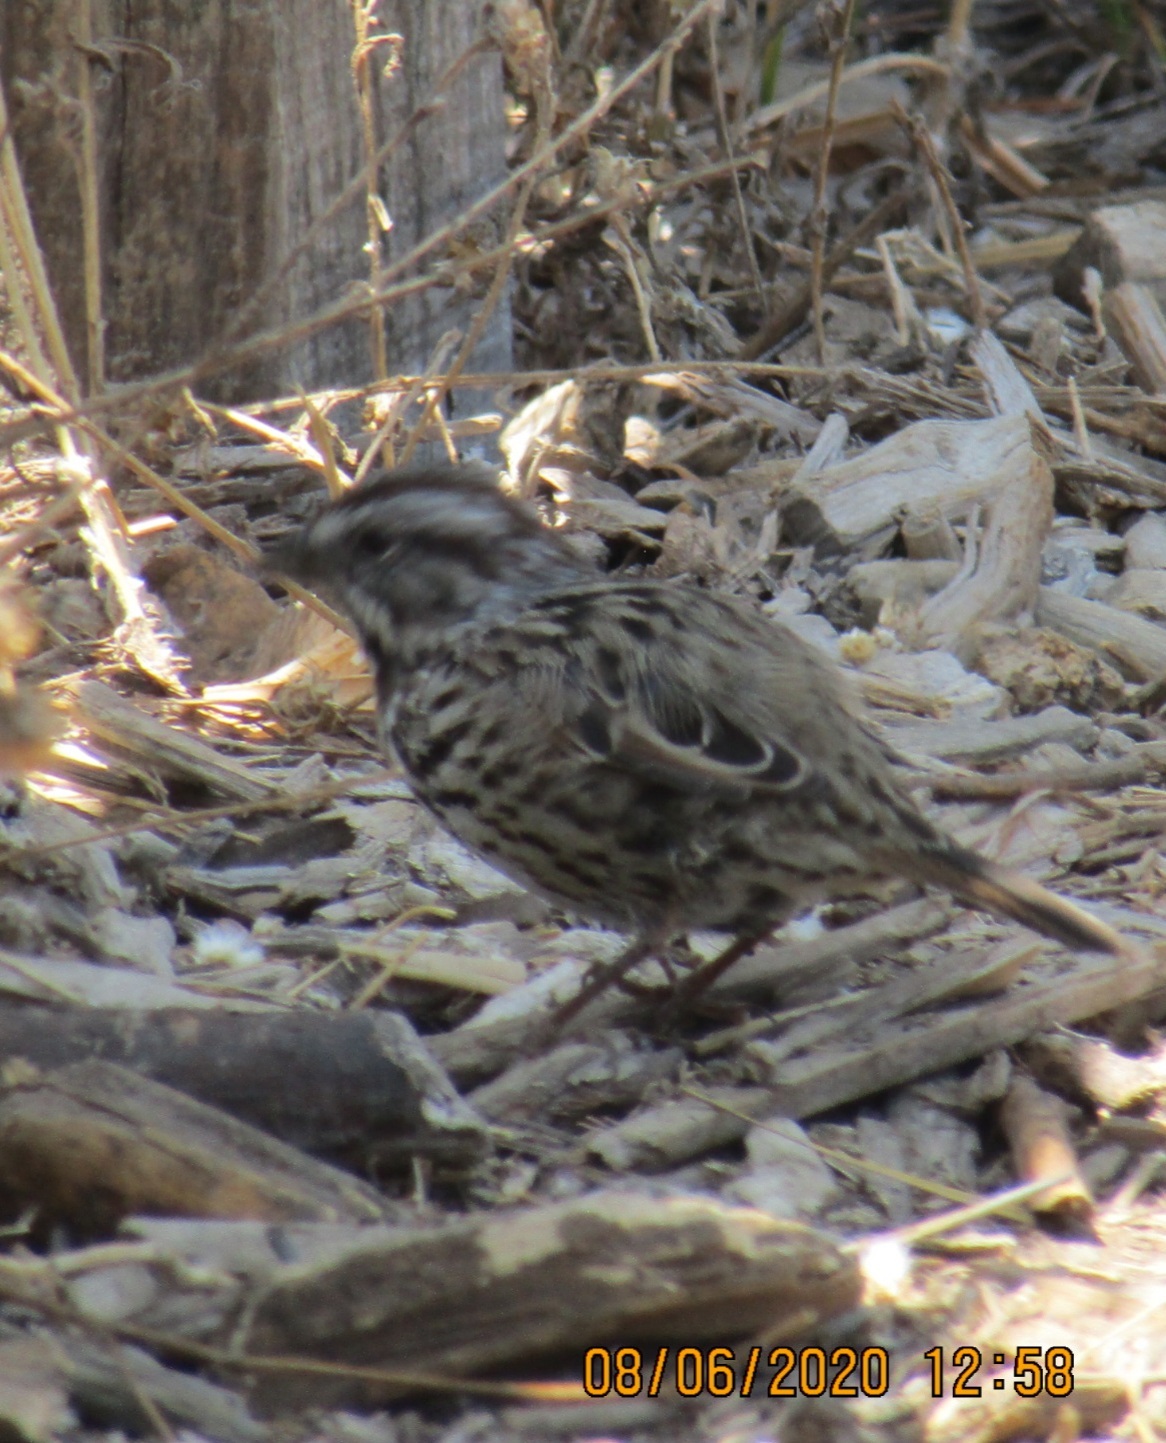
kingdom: Animalia
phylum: Chordata
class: Aves
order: Passeriformes
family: Passerellidae
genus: Melospiza
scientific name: Melospiza melodia
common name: Song sparrow
